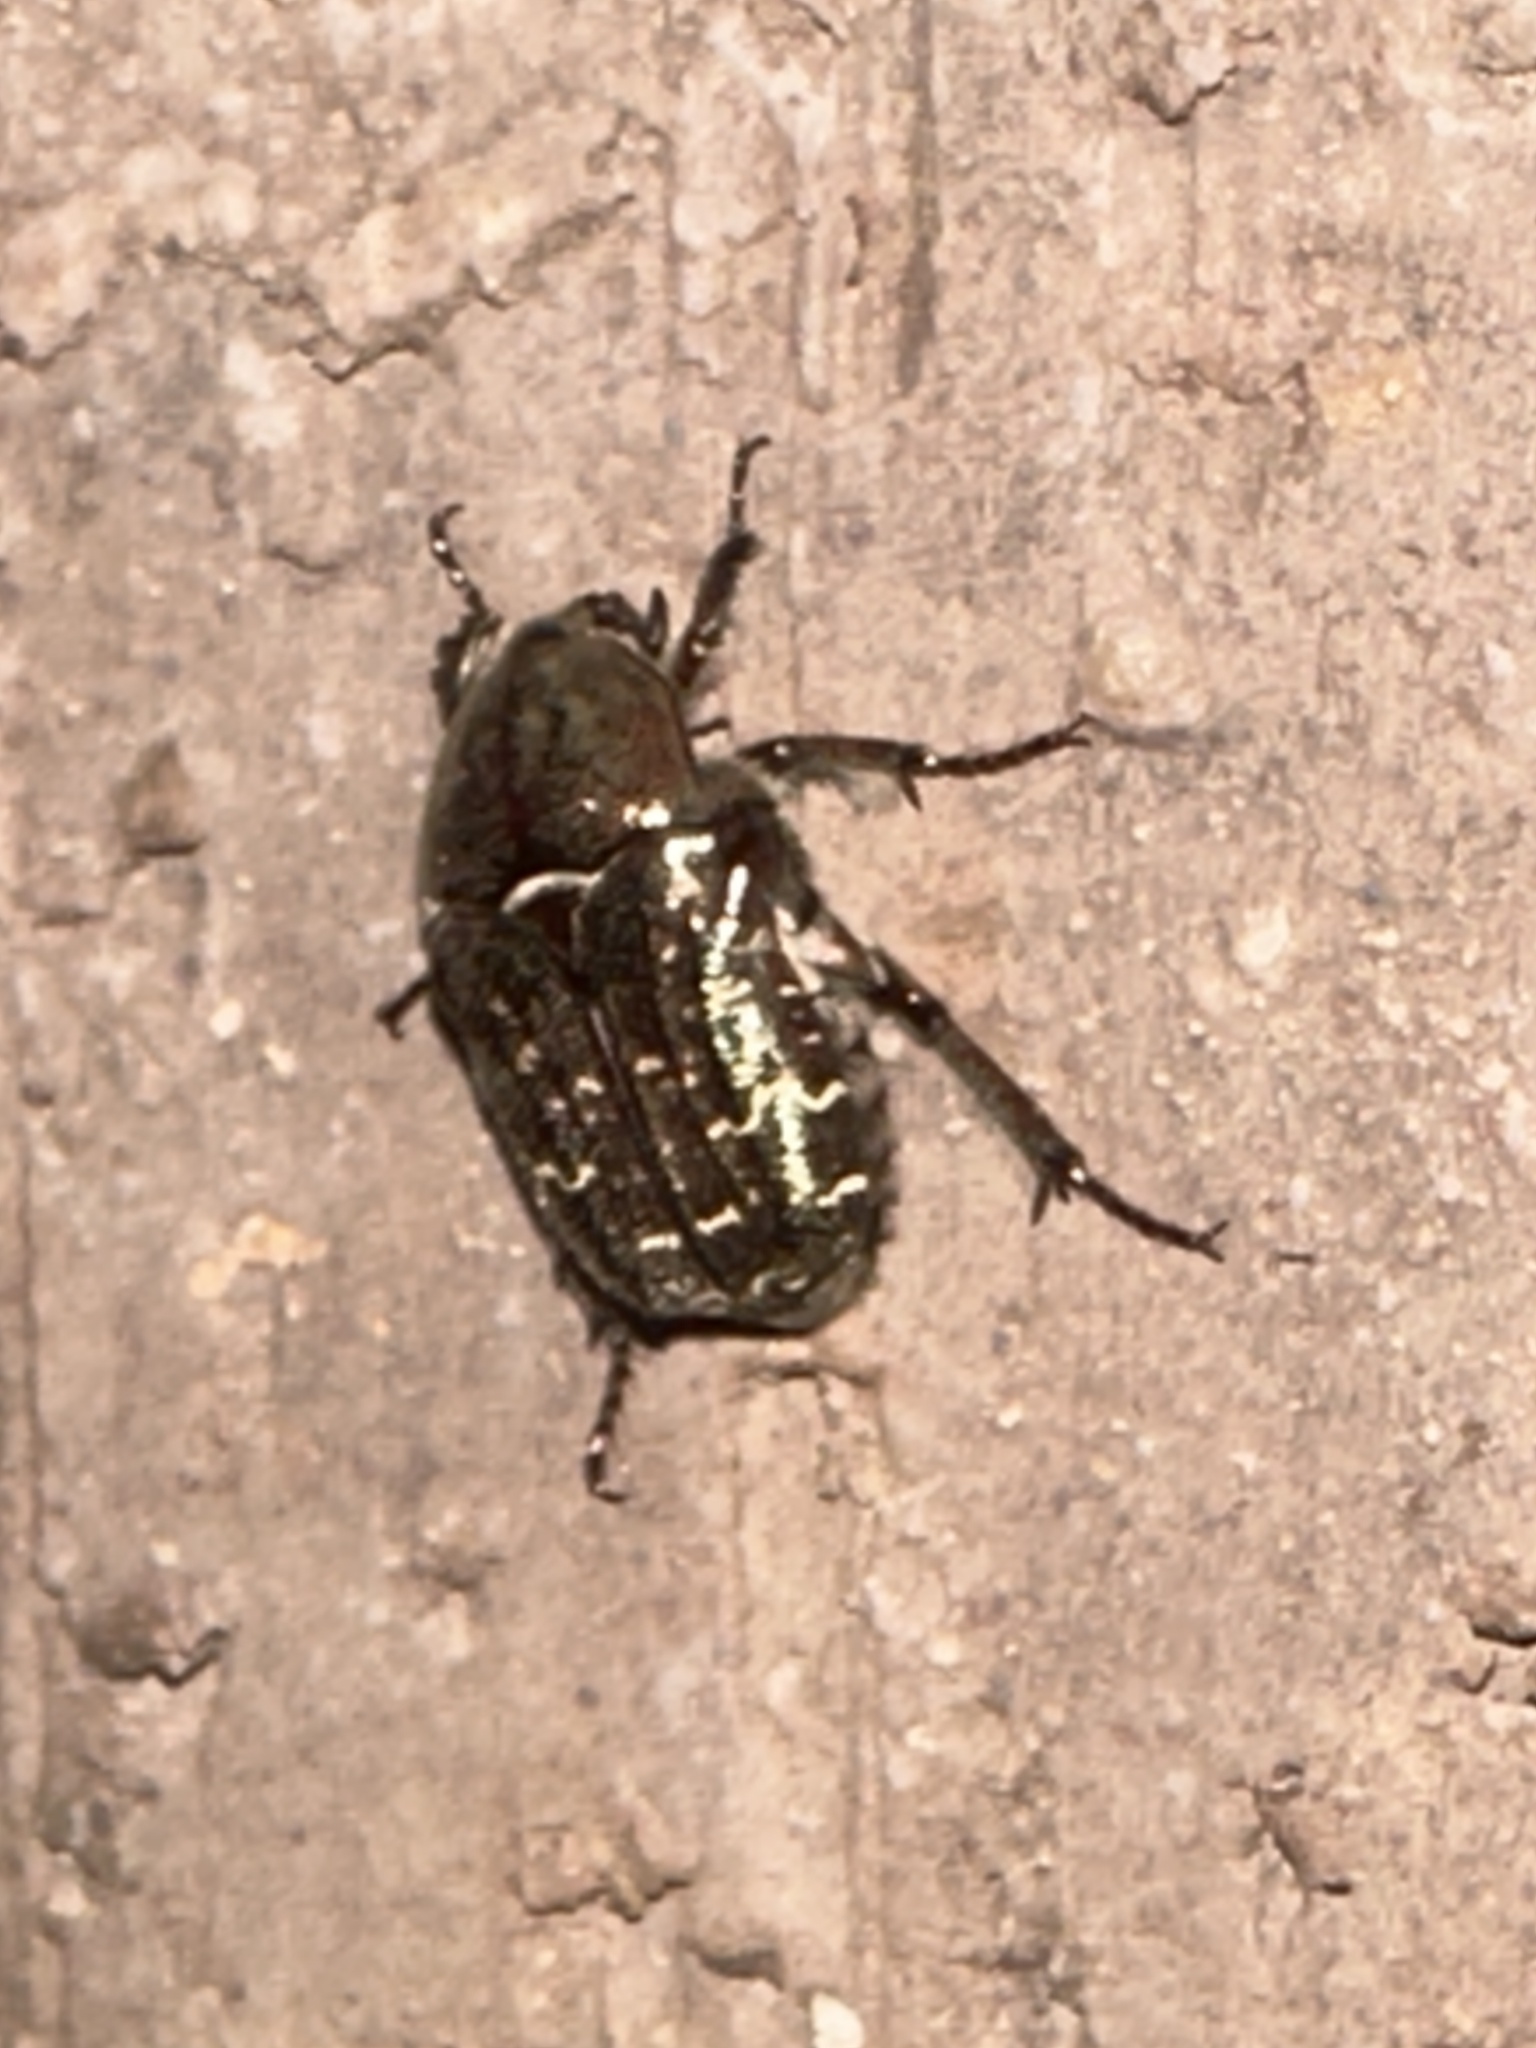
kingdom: Animalia
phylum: Arthropoda
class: Insecta
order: Coleoptera
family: Scarabaeidae
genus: Euphoria
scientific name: Euphoria sepulcralis
